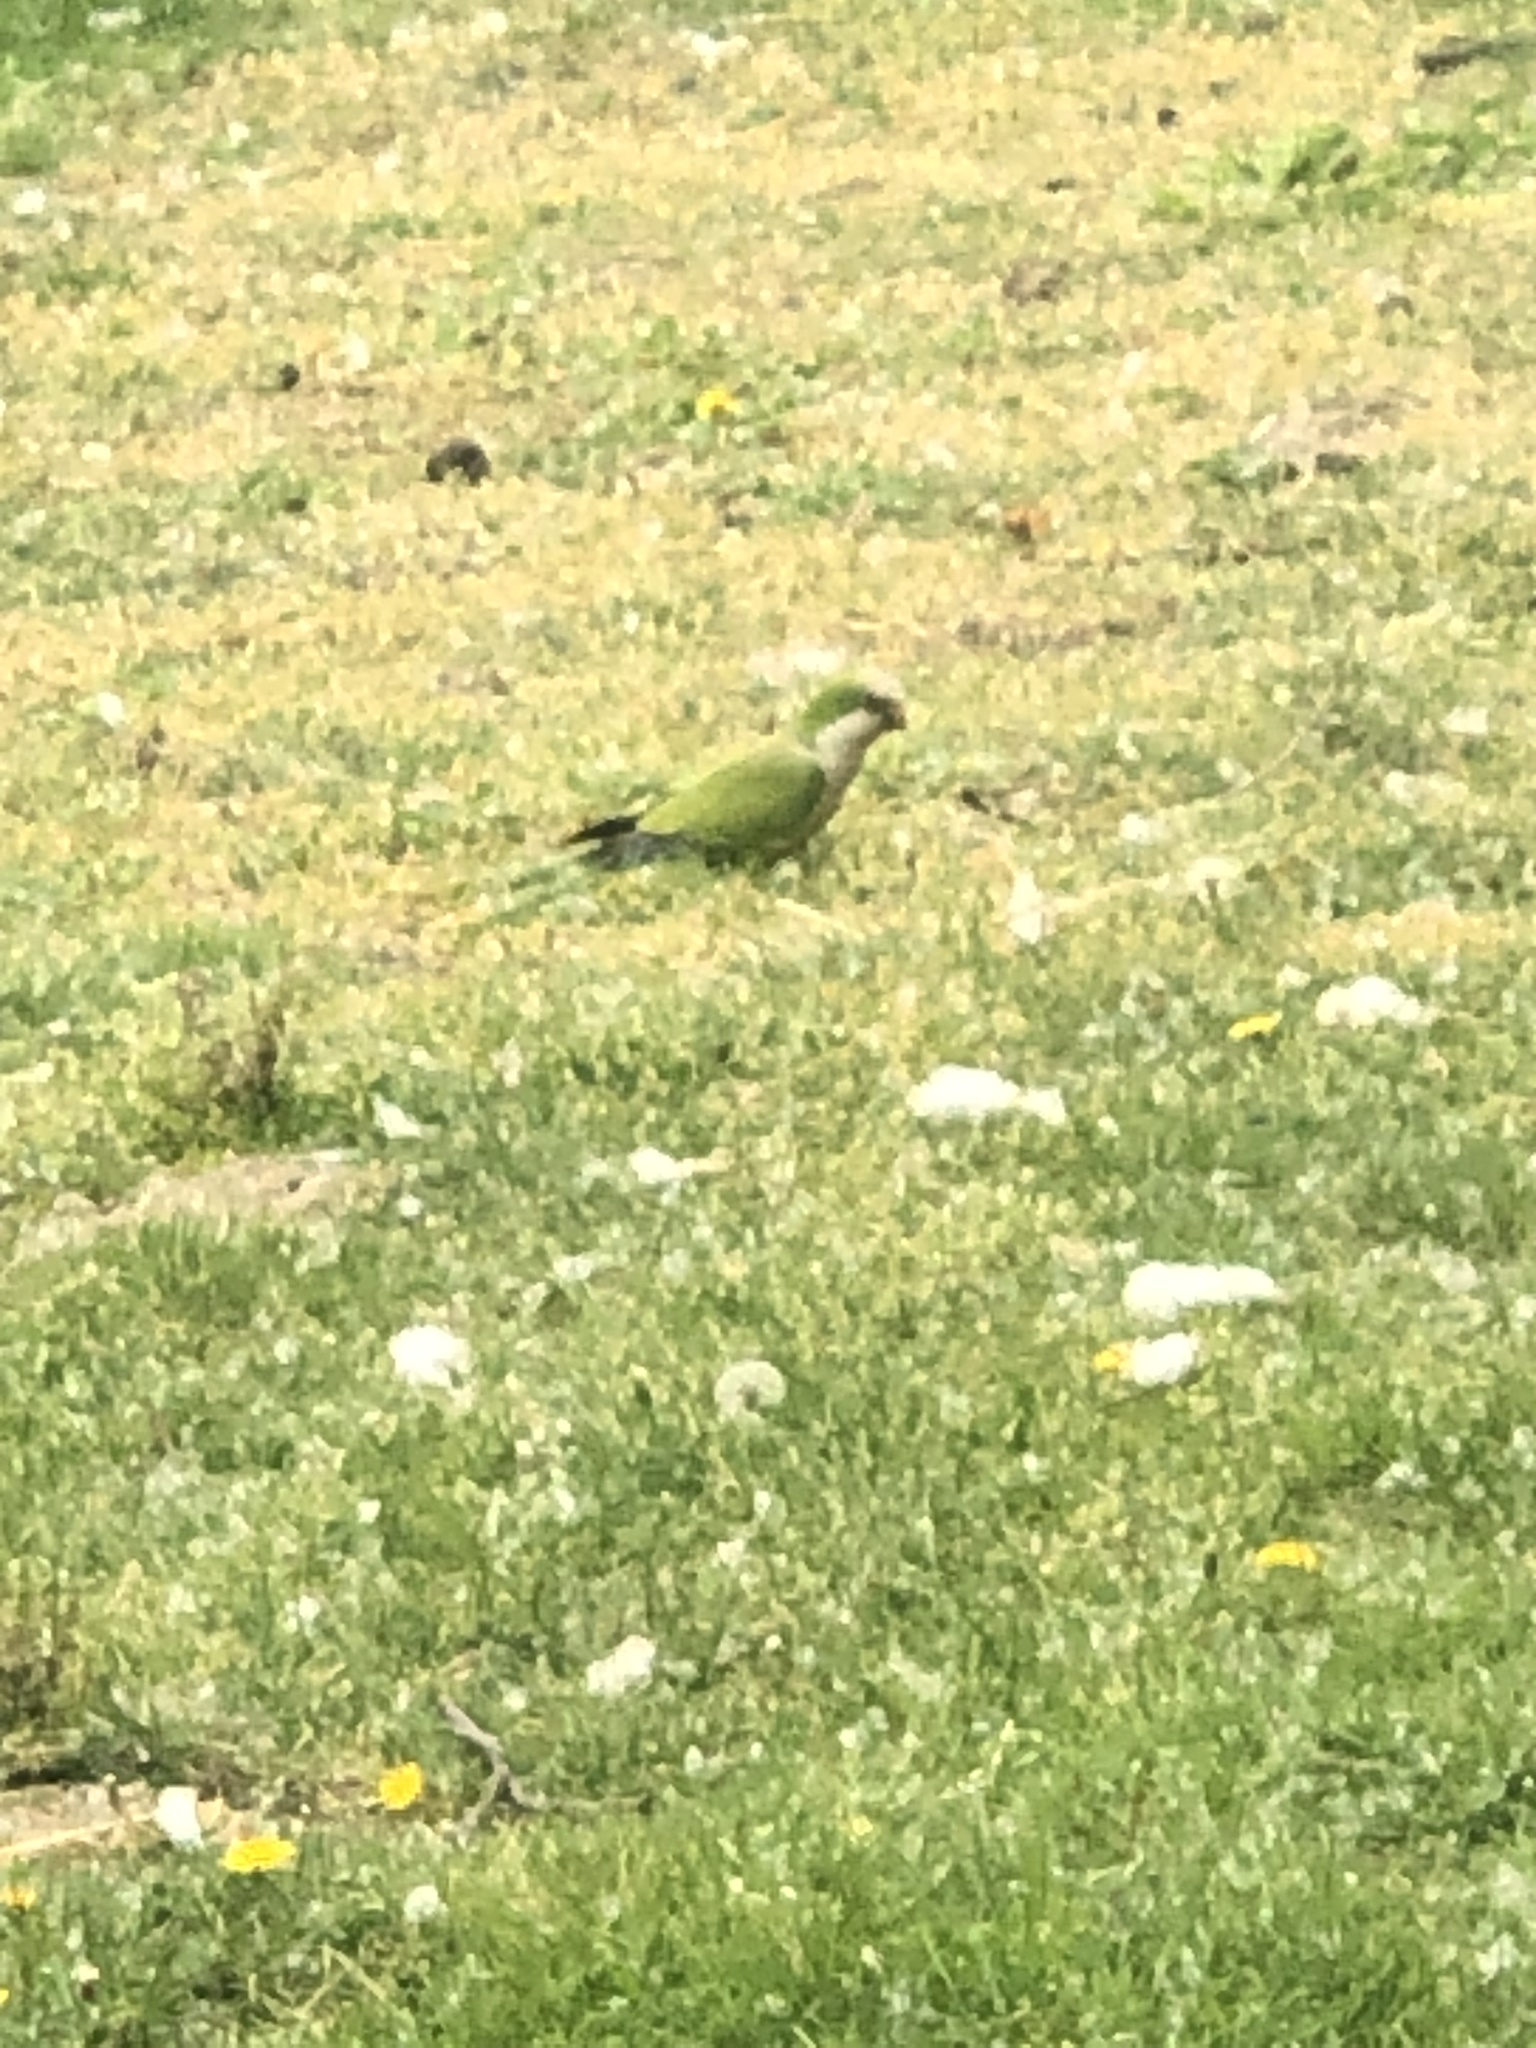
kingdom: Animalia
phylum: Chordata
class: Aves
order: Psittaciformes
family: Psittacidae
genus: Myiopsitta
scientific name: Myiopsitta monachus
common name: Monk parakeet
